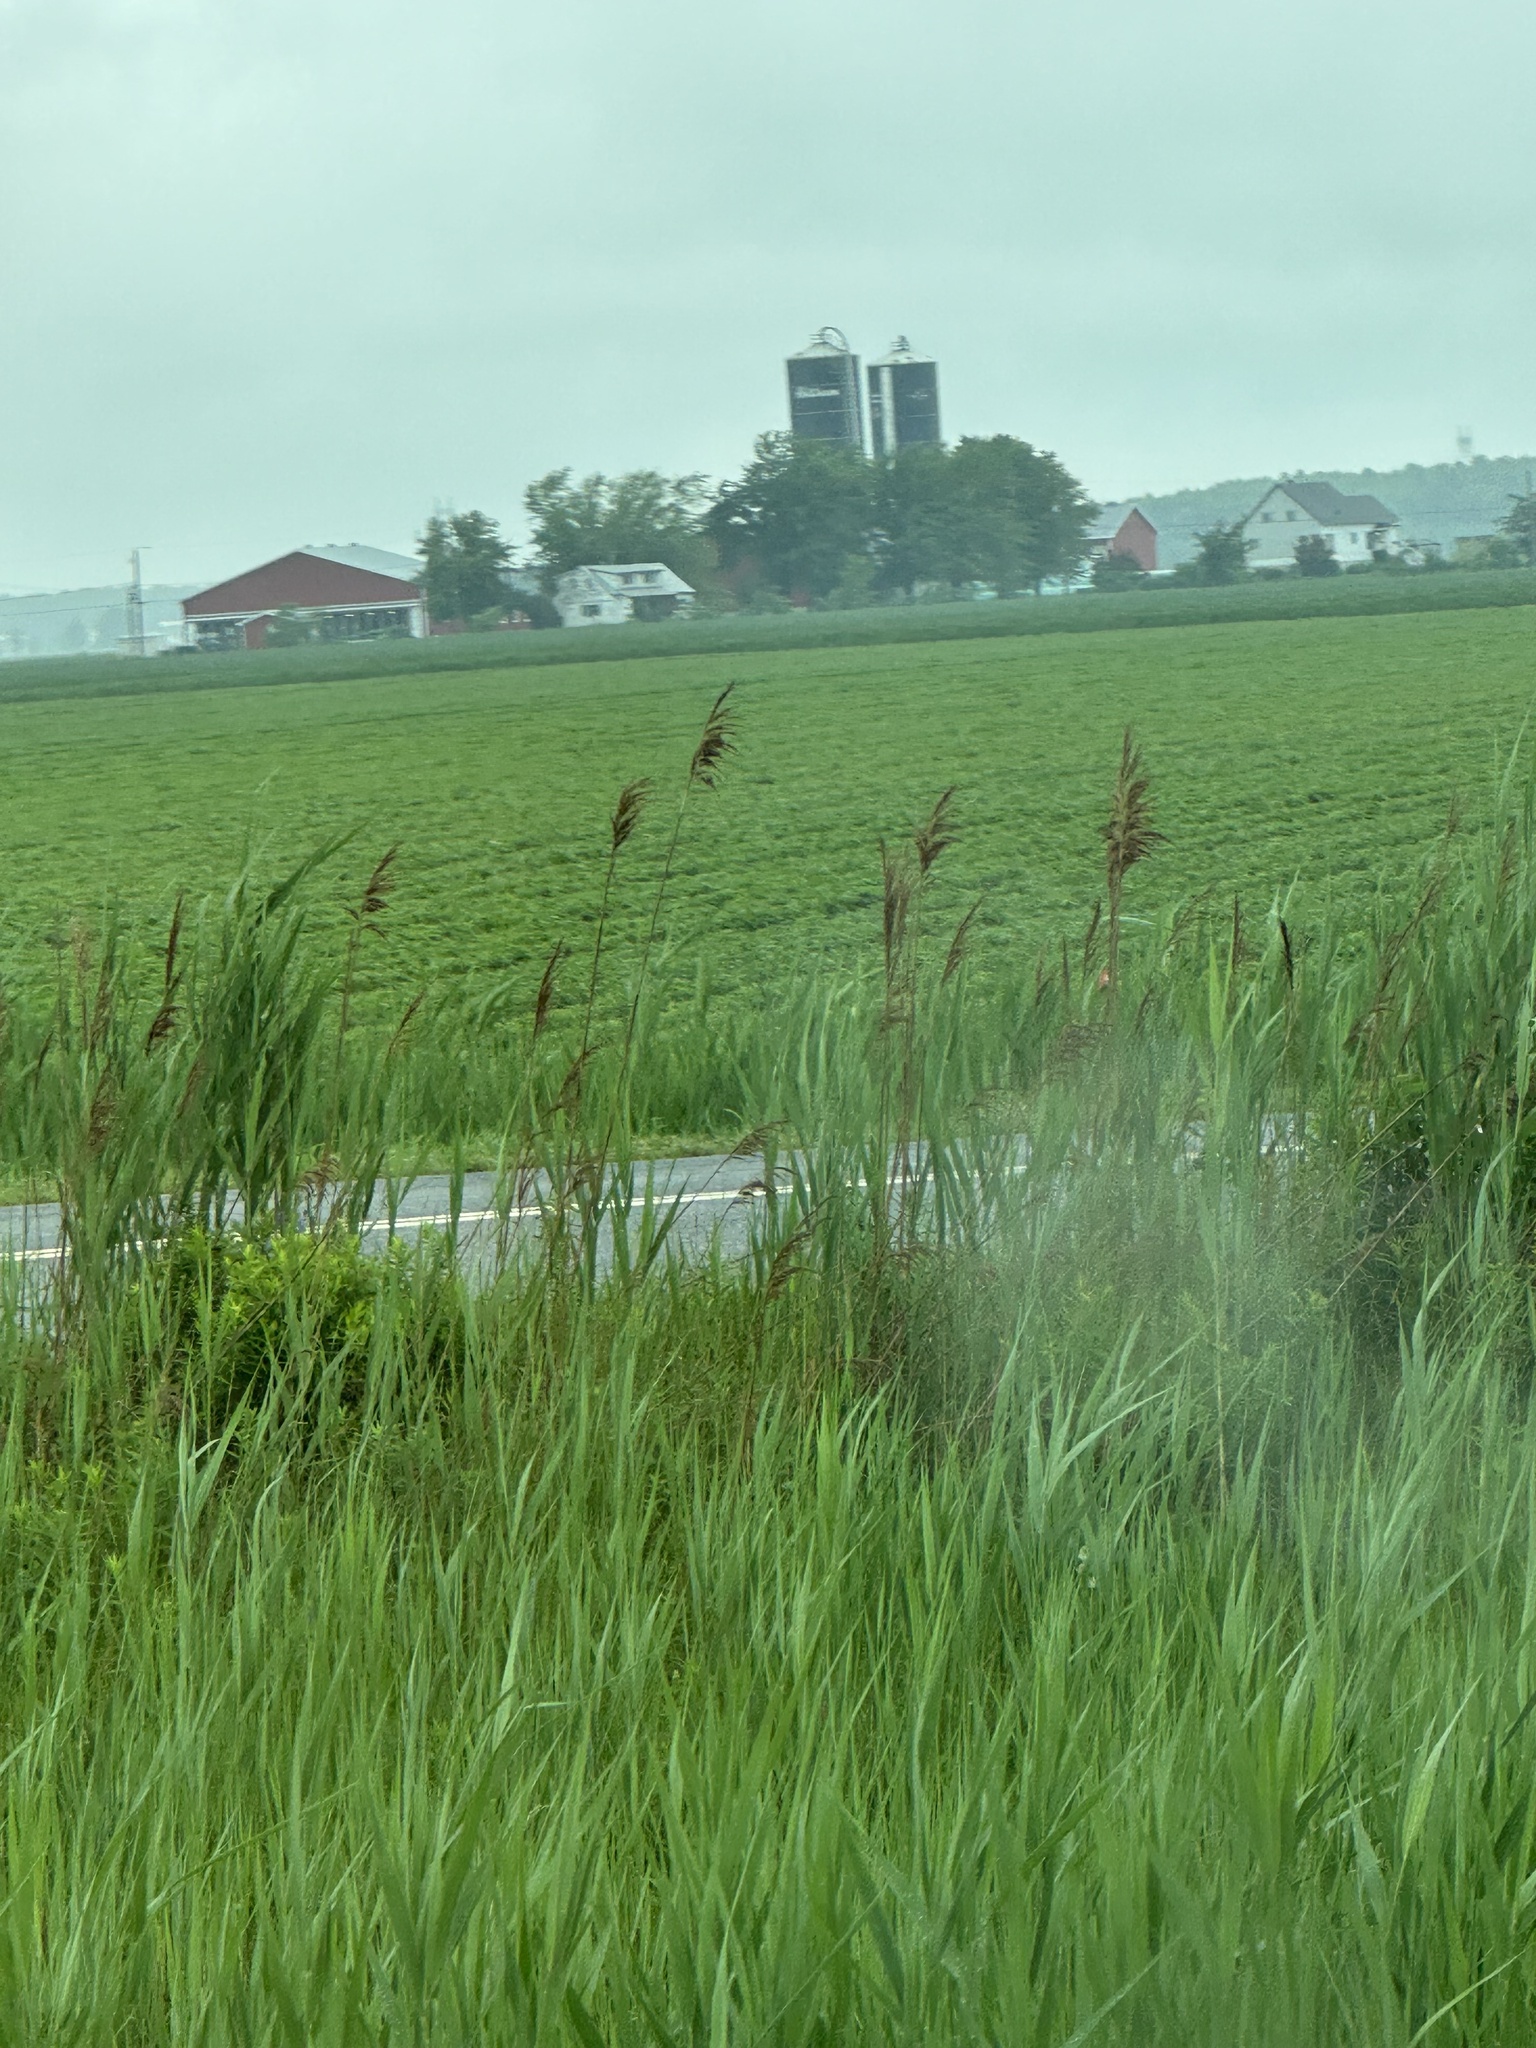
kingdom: Plantae
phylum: Tracheophyta
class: Liliopsida
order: Poales
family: Poaceae
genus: Phragmites
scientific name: Phragmites australis
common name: Common reed
